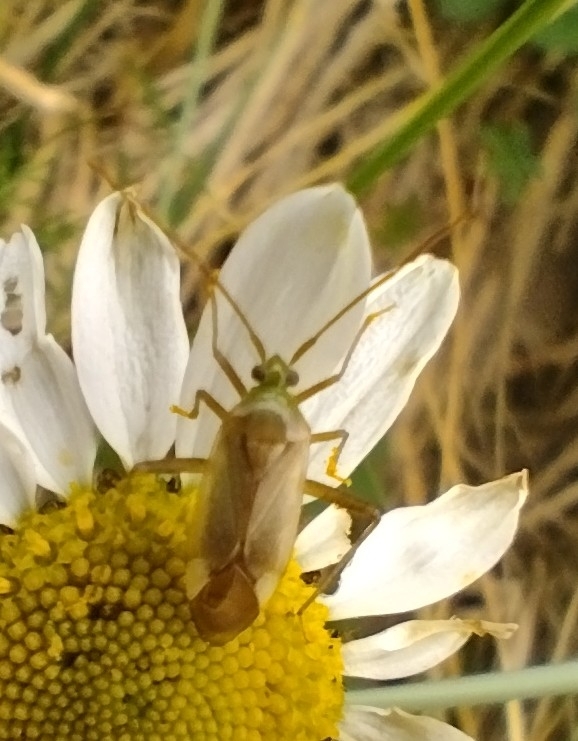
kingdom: Animalia
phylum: Arthropoda
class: Insecta
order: Hemiptera
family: Miridae
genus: Adelphocoris
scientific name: Adelphocoris lineolatus
